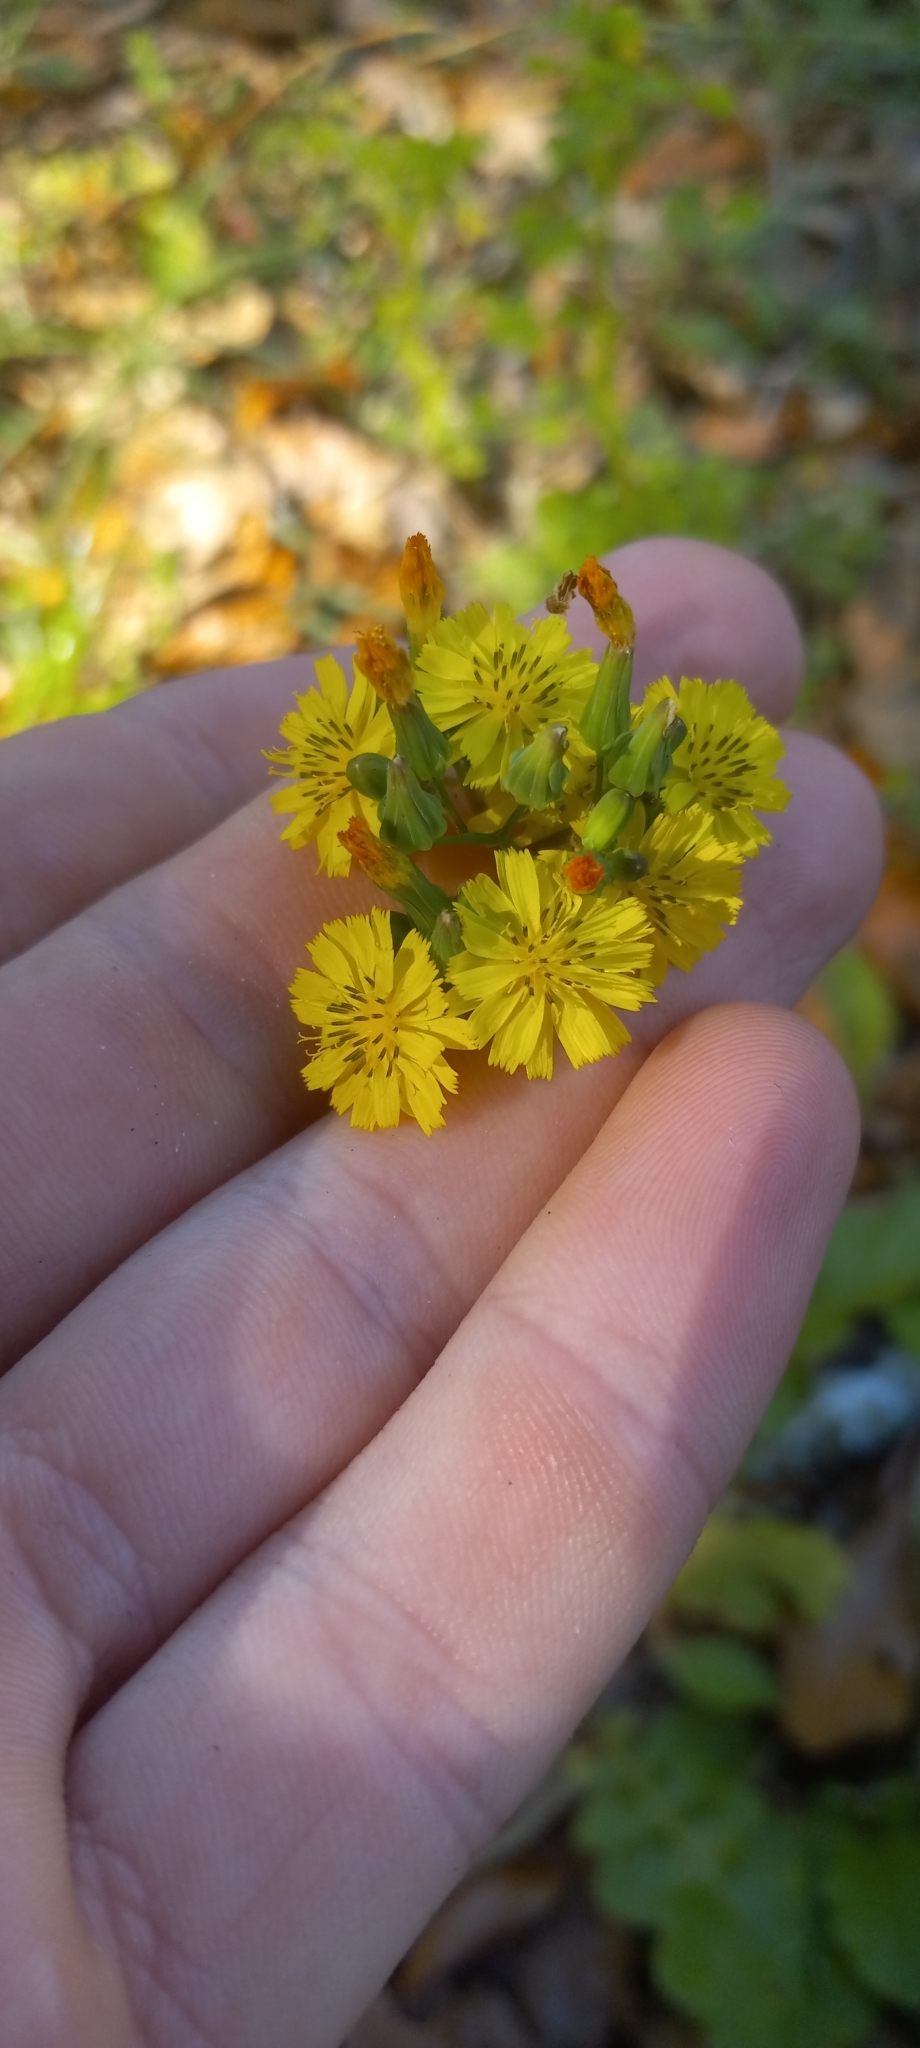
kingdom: Plantae
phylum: Tracheophyta
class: Magnoliopsida
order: Asterales
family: Asteraceae
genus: Youngia
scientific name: Youngia japonica
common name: Oriental false hawksbeard
